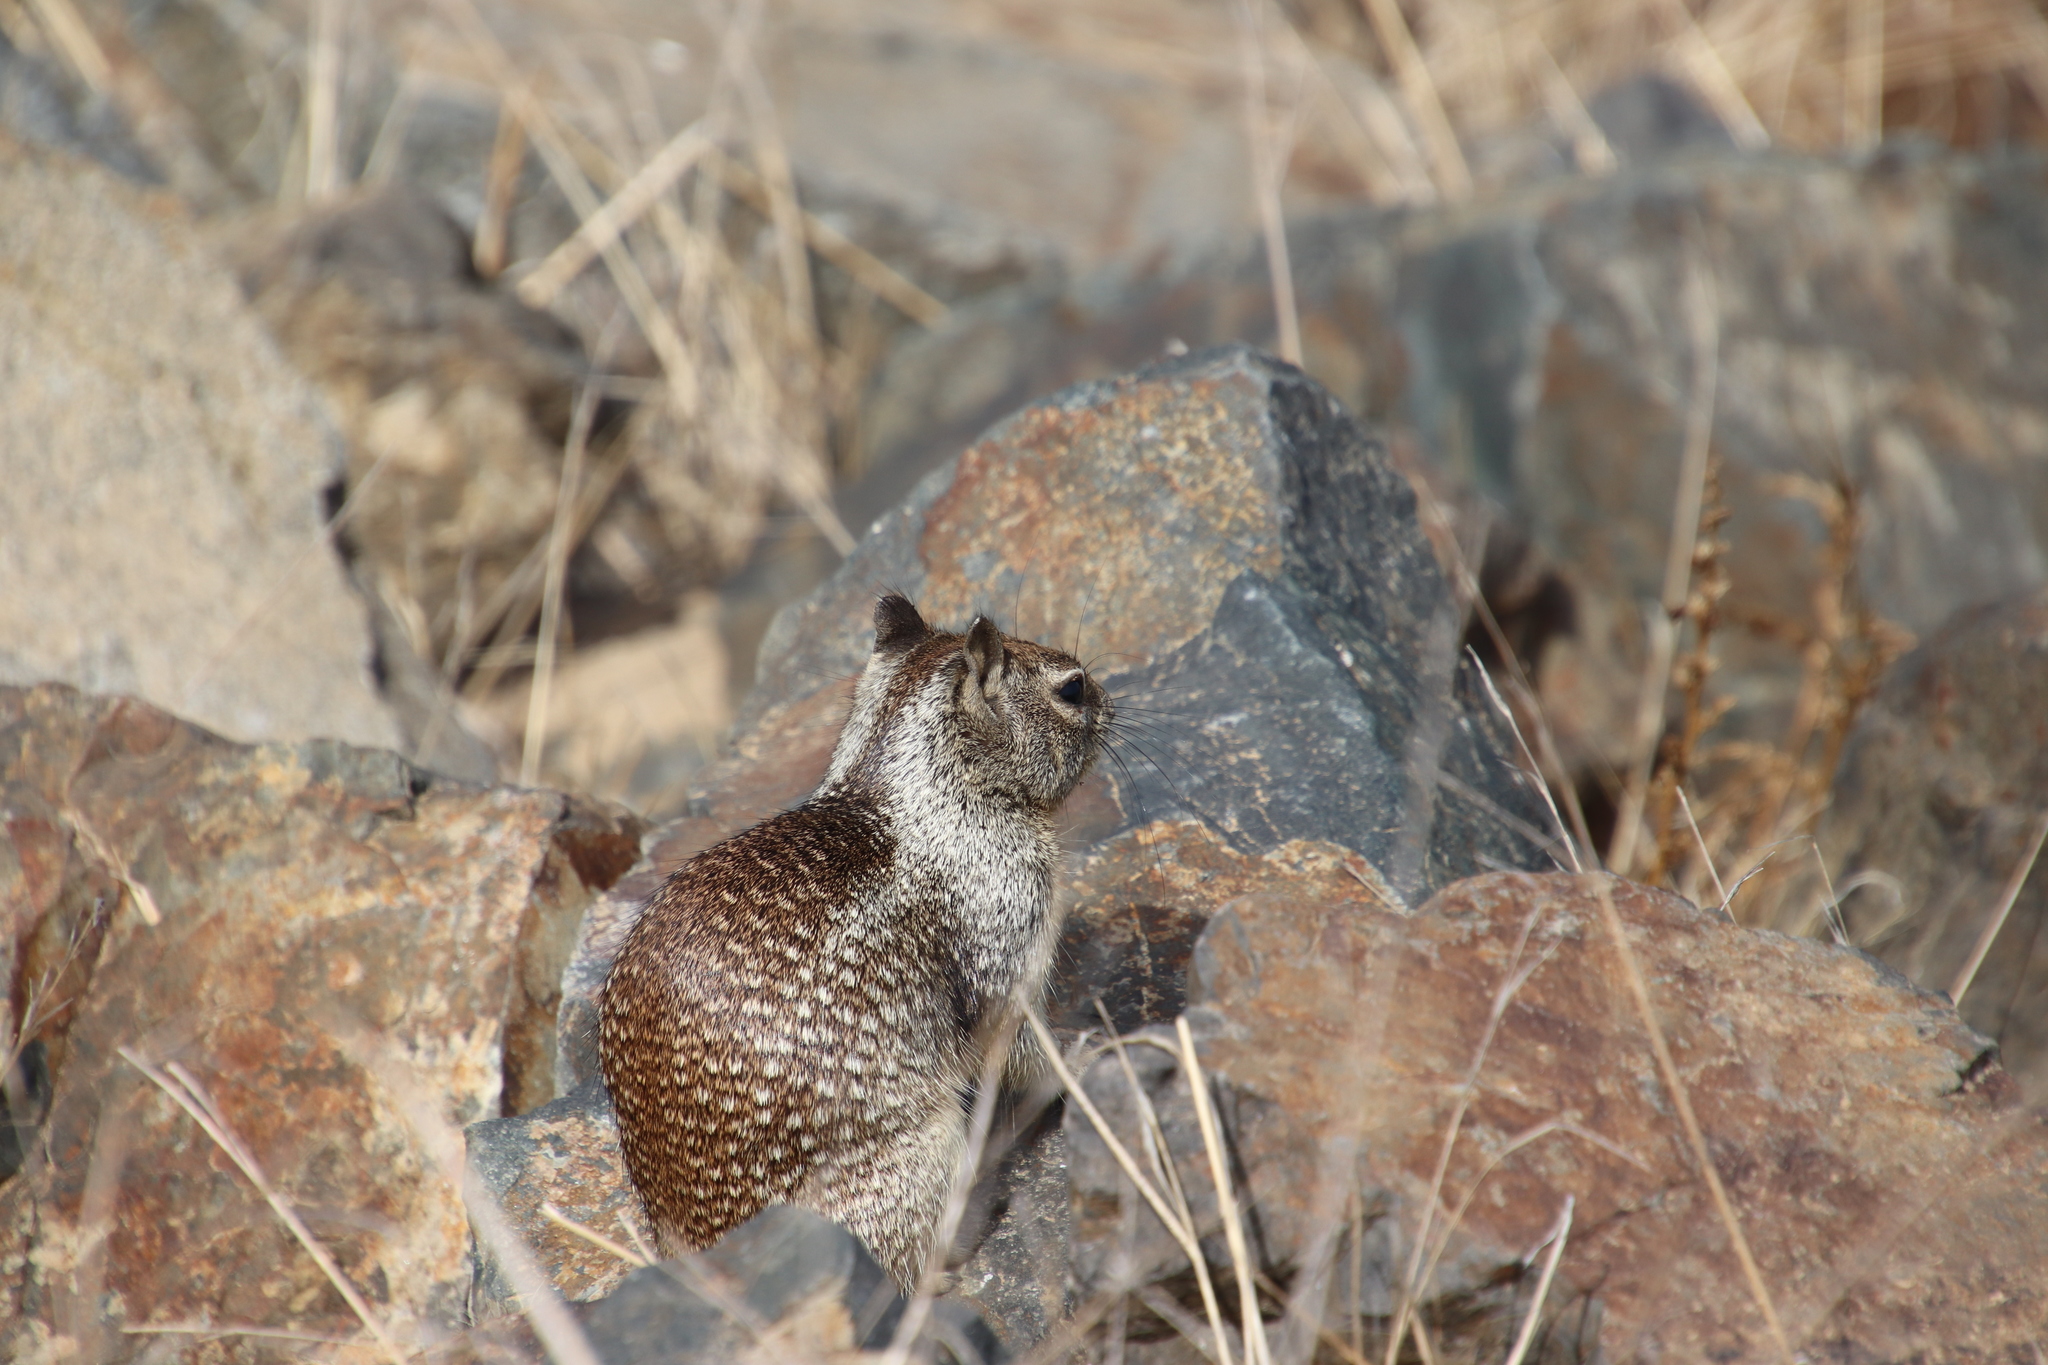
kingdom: Animalia
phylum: Chordata
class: Mammalia
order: Rodentia
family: Sciuridae
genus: Otospermophilus
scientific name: Otospermophilus beecheyi
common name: California ground squirrel
